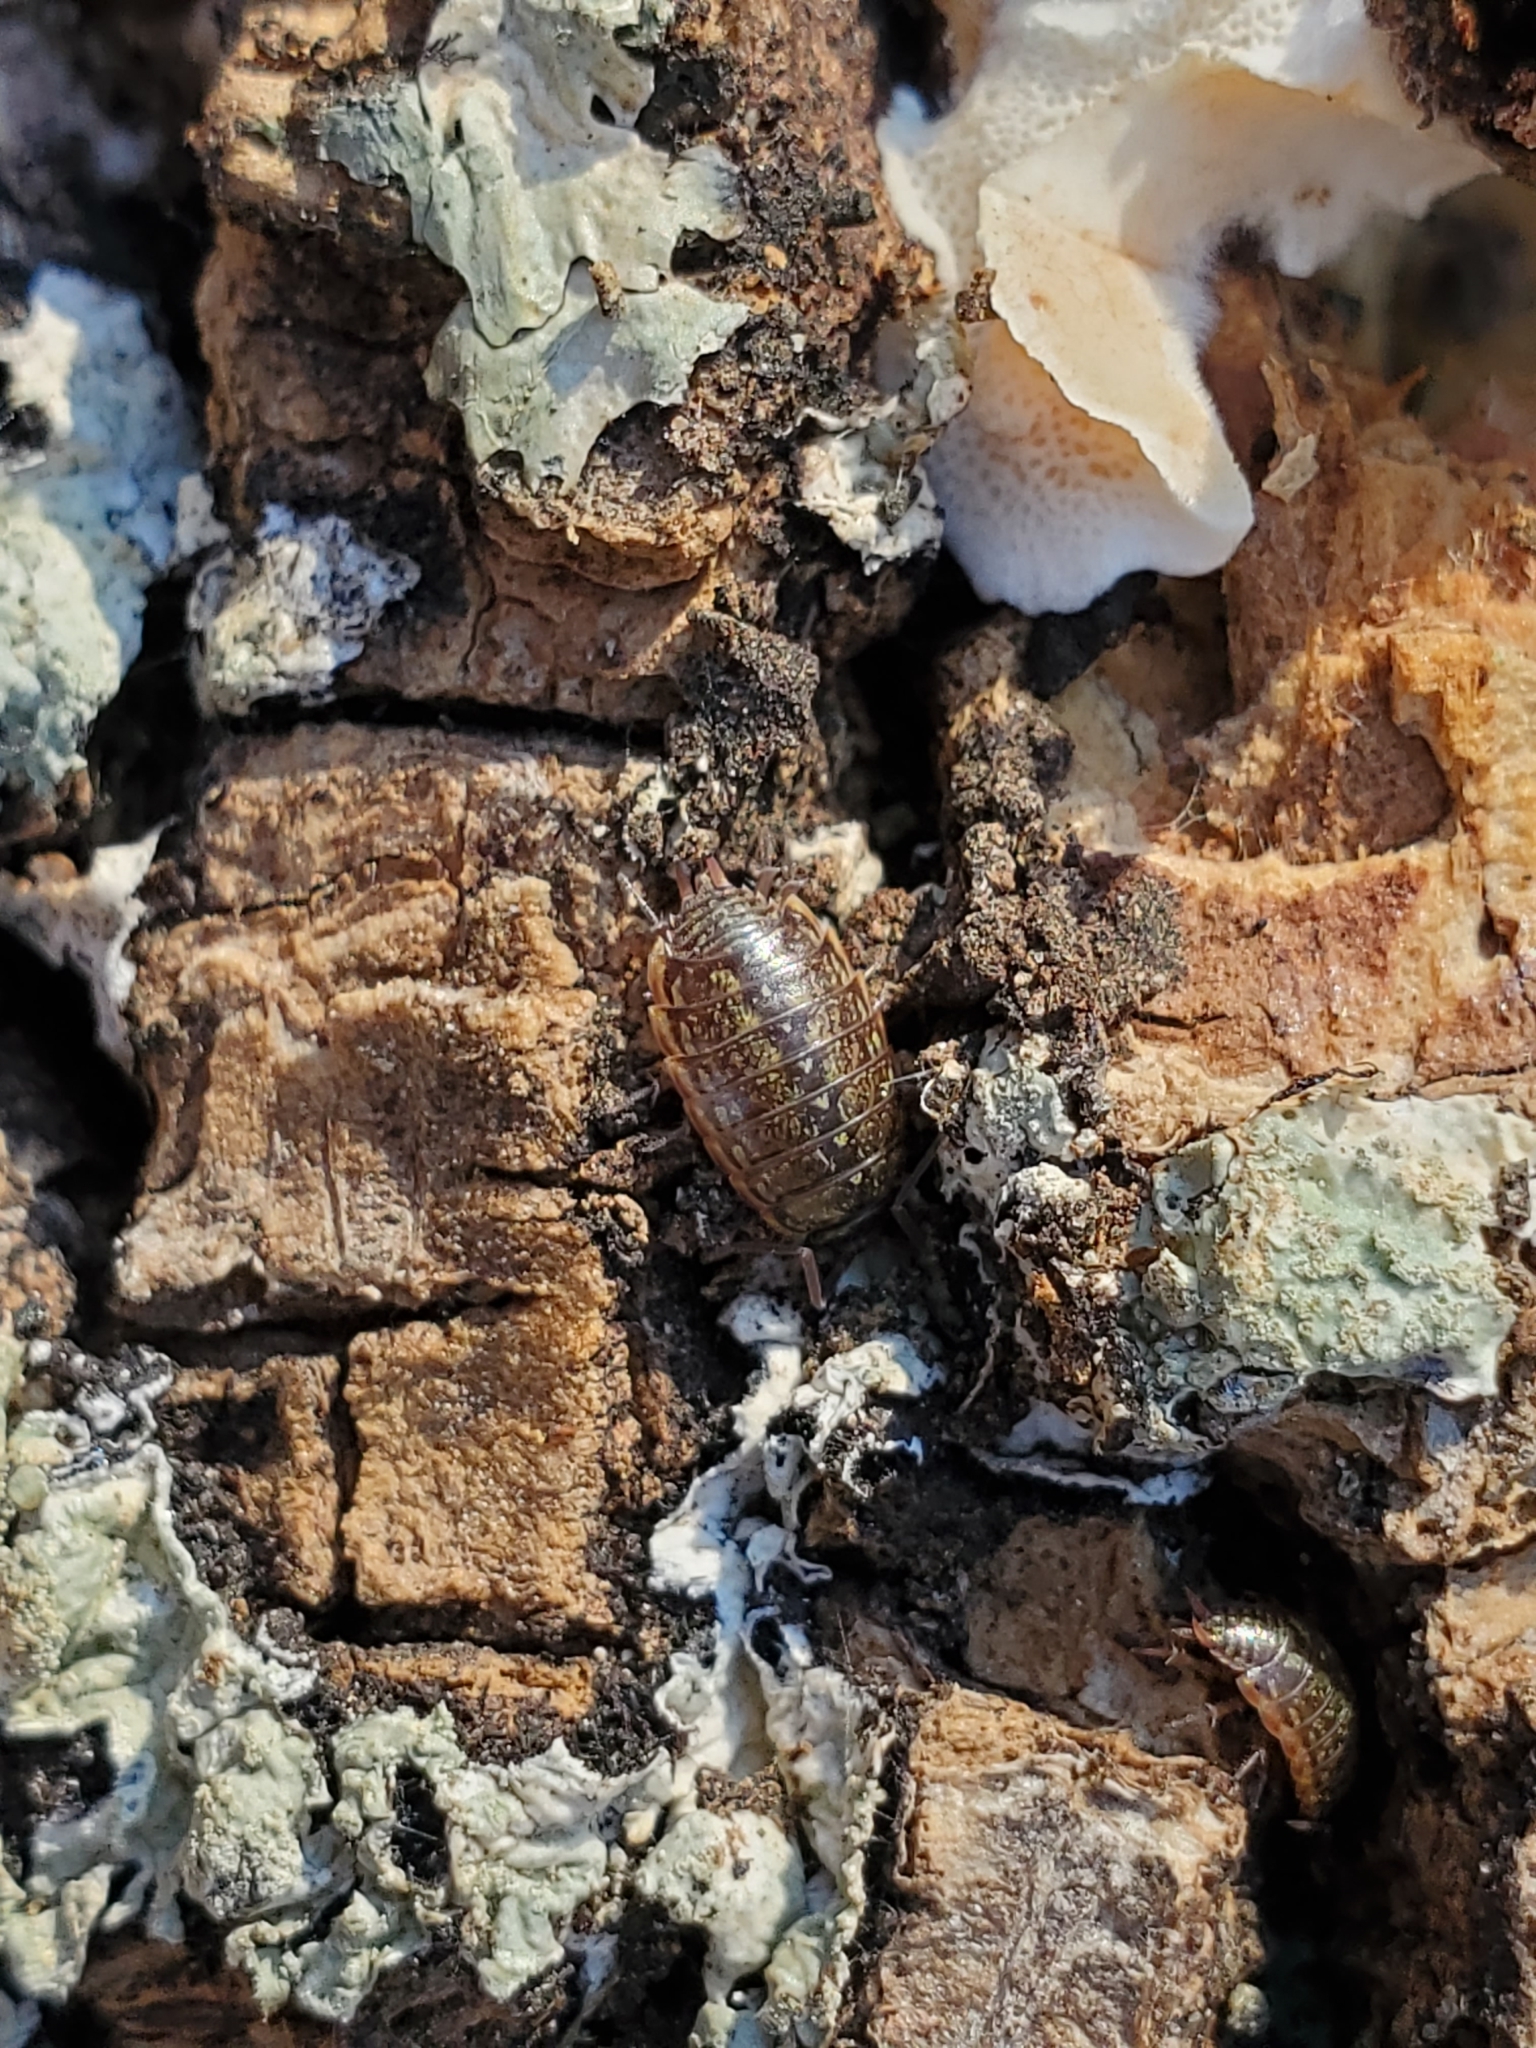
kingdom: Animalia
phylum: Arthropoda
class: Malacostraca
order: Isopoda
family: Philosciidae
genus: Philoscia
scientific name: Philoscia muscorum
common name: Common striped woodlouse
